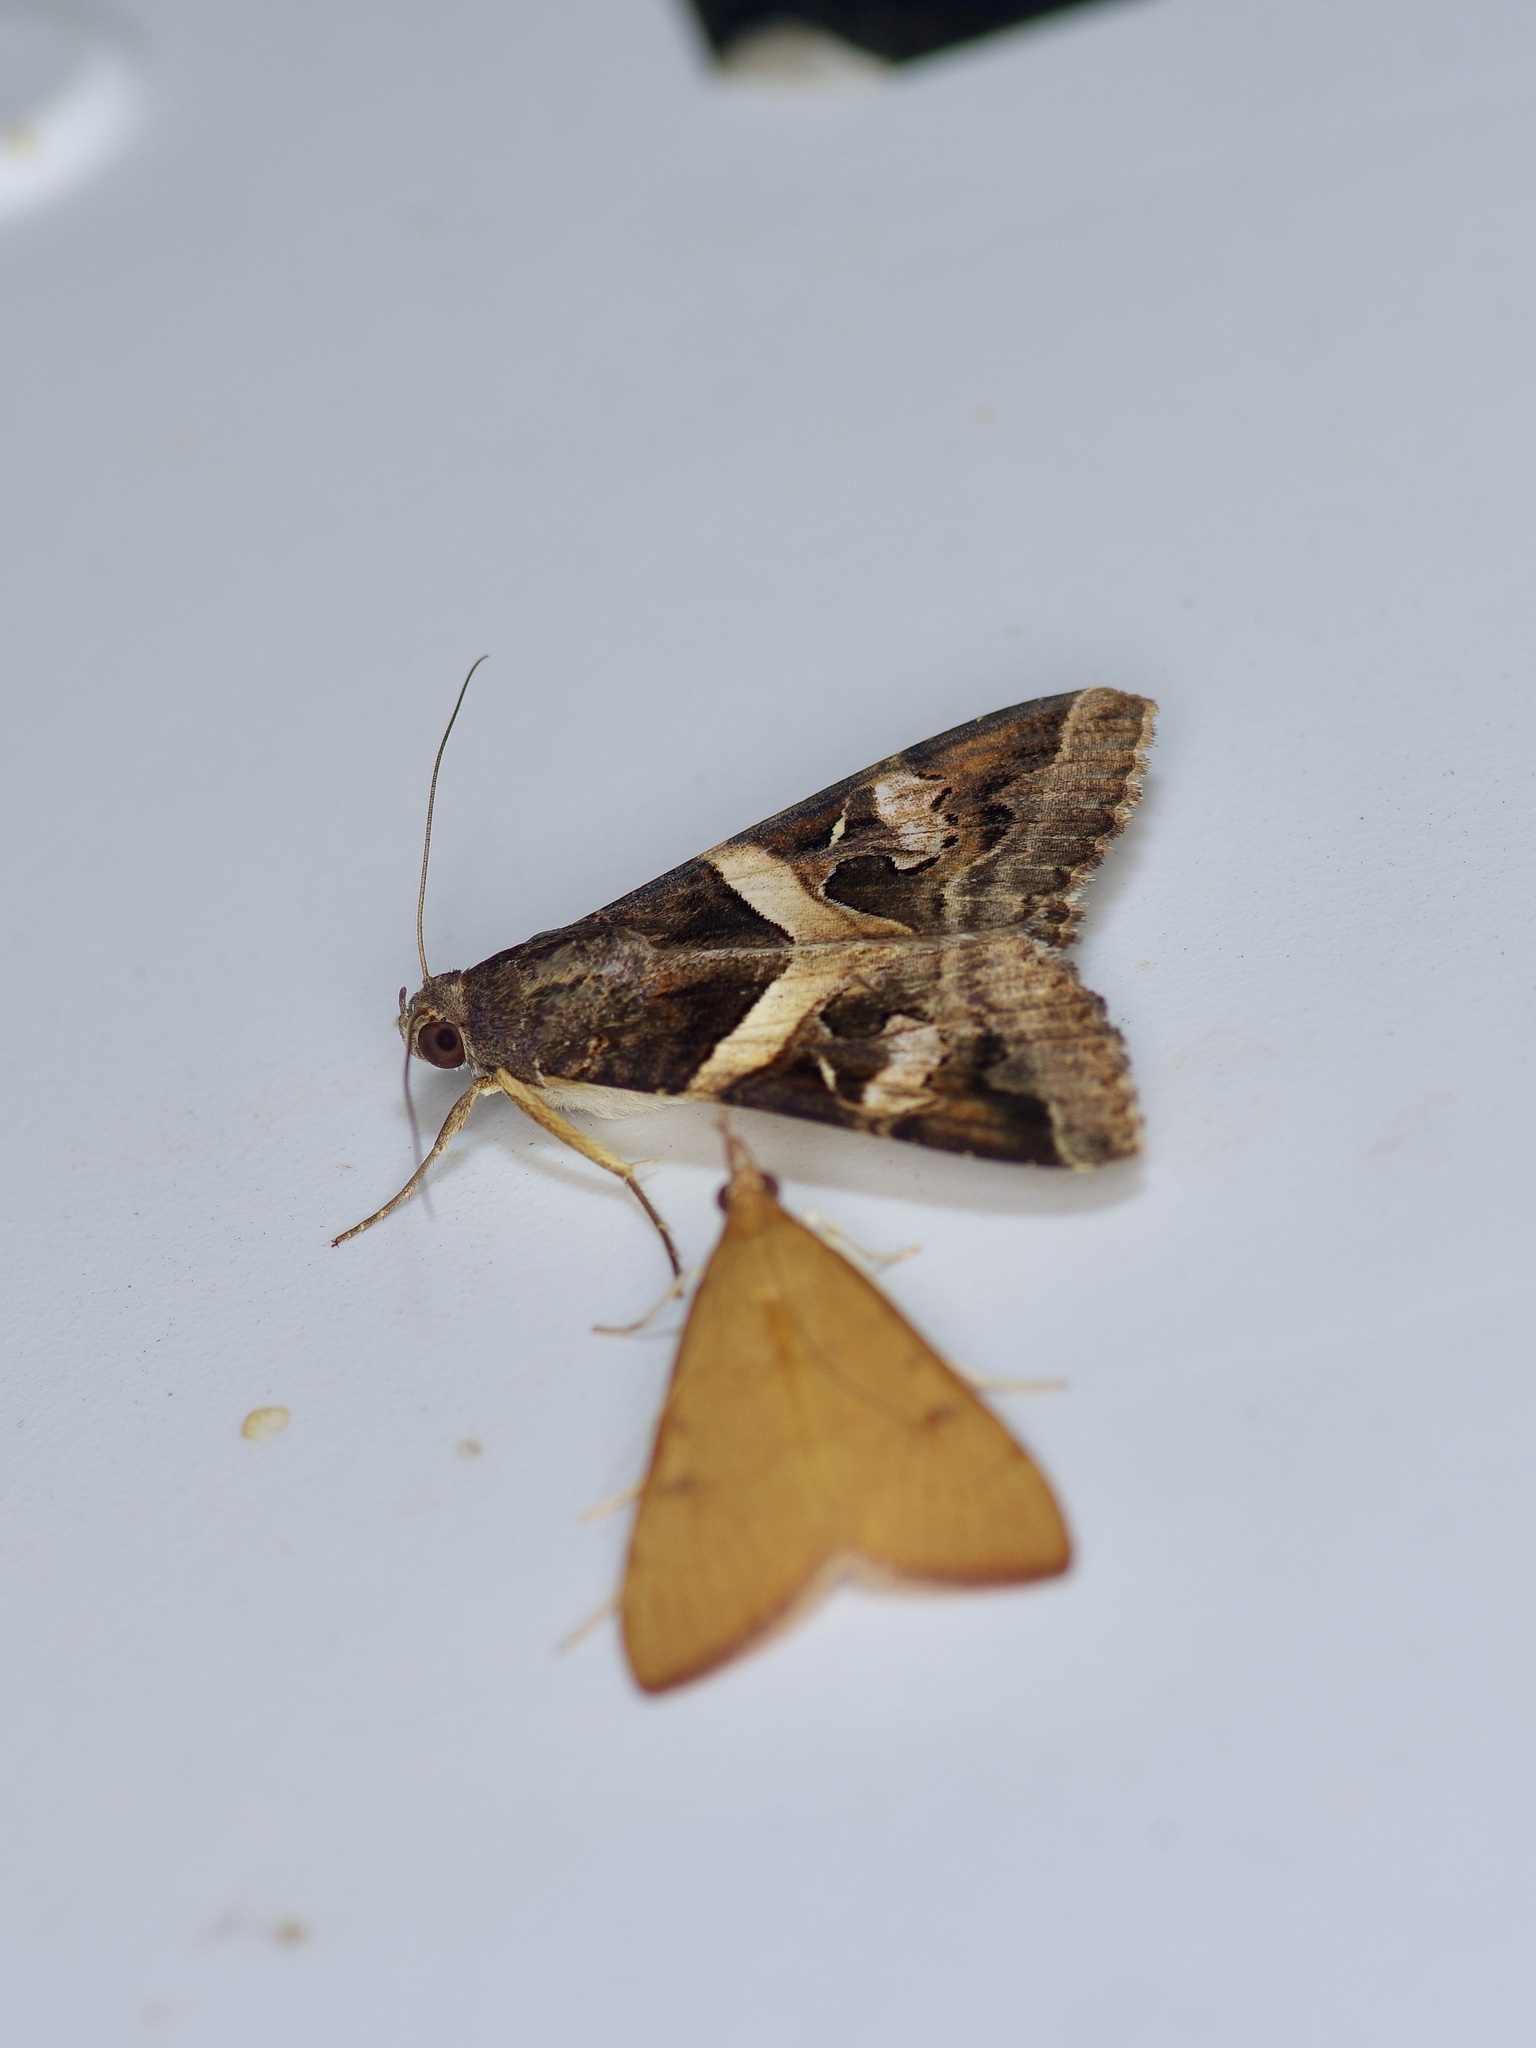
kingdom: Animalia
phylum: Arthropoda
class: Insecta
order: Lepidoptera
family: Erebidae
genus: Melipotis
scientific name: Melipotis indomita
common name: Moth
